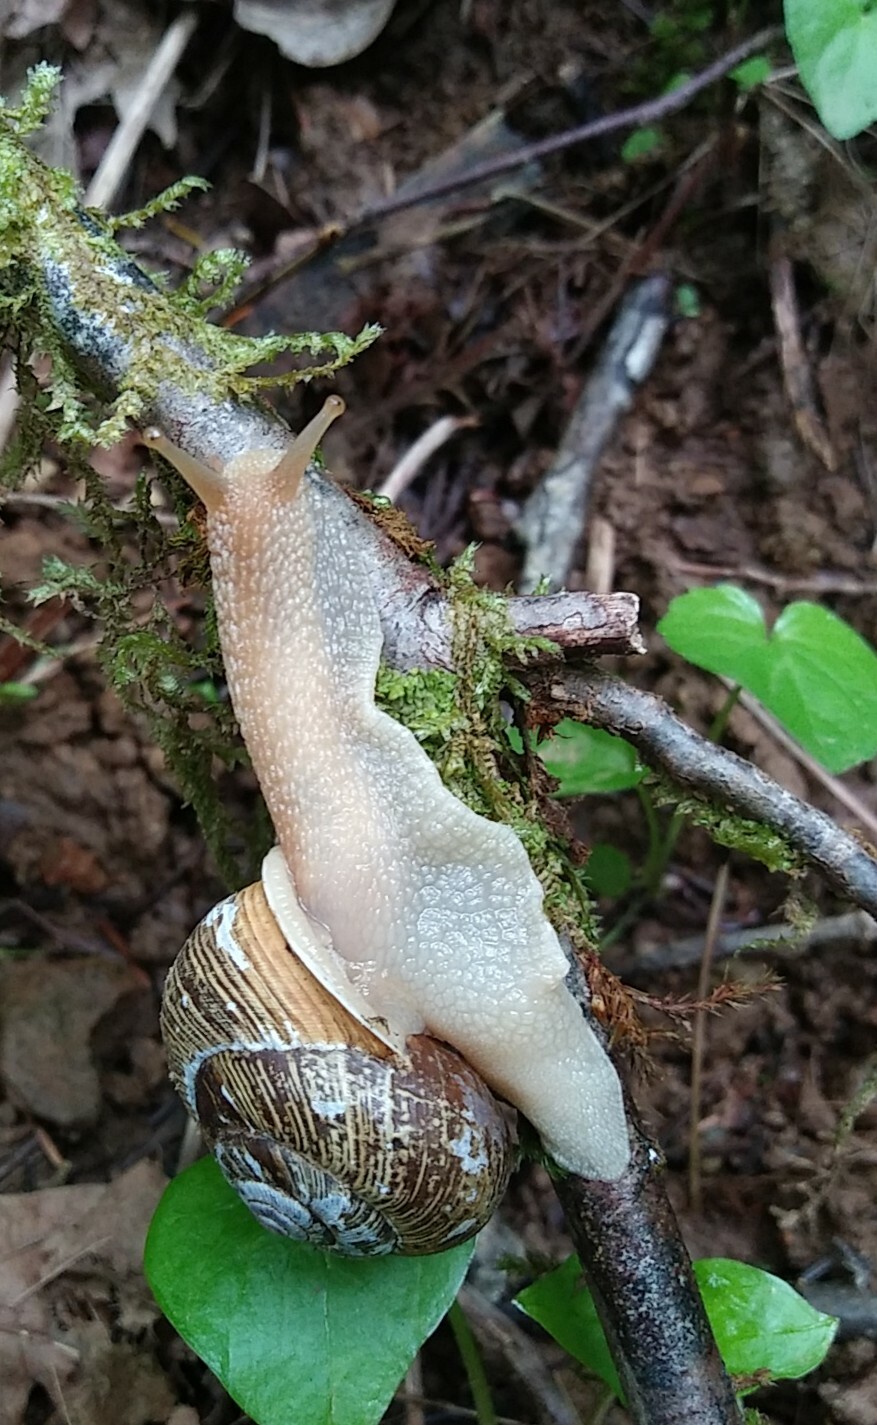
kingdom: Animalia
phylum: Mollusca
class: Gastropoda
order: Stylommatophora
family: Polygyridae
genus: Allogona
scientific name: Allogona townsendiana
